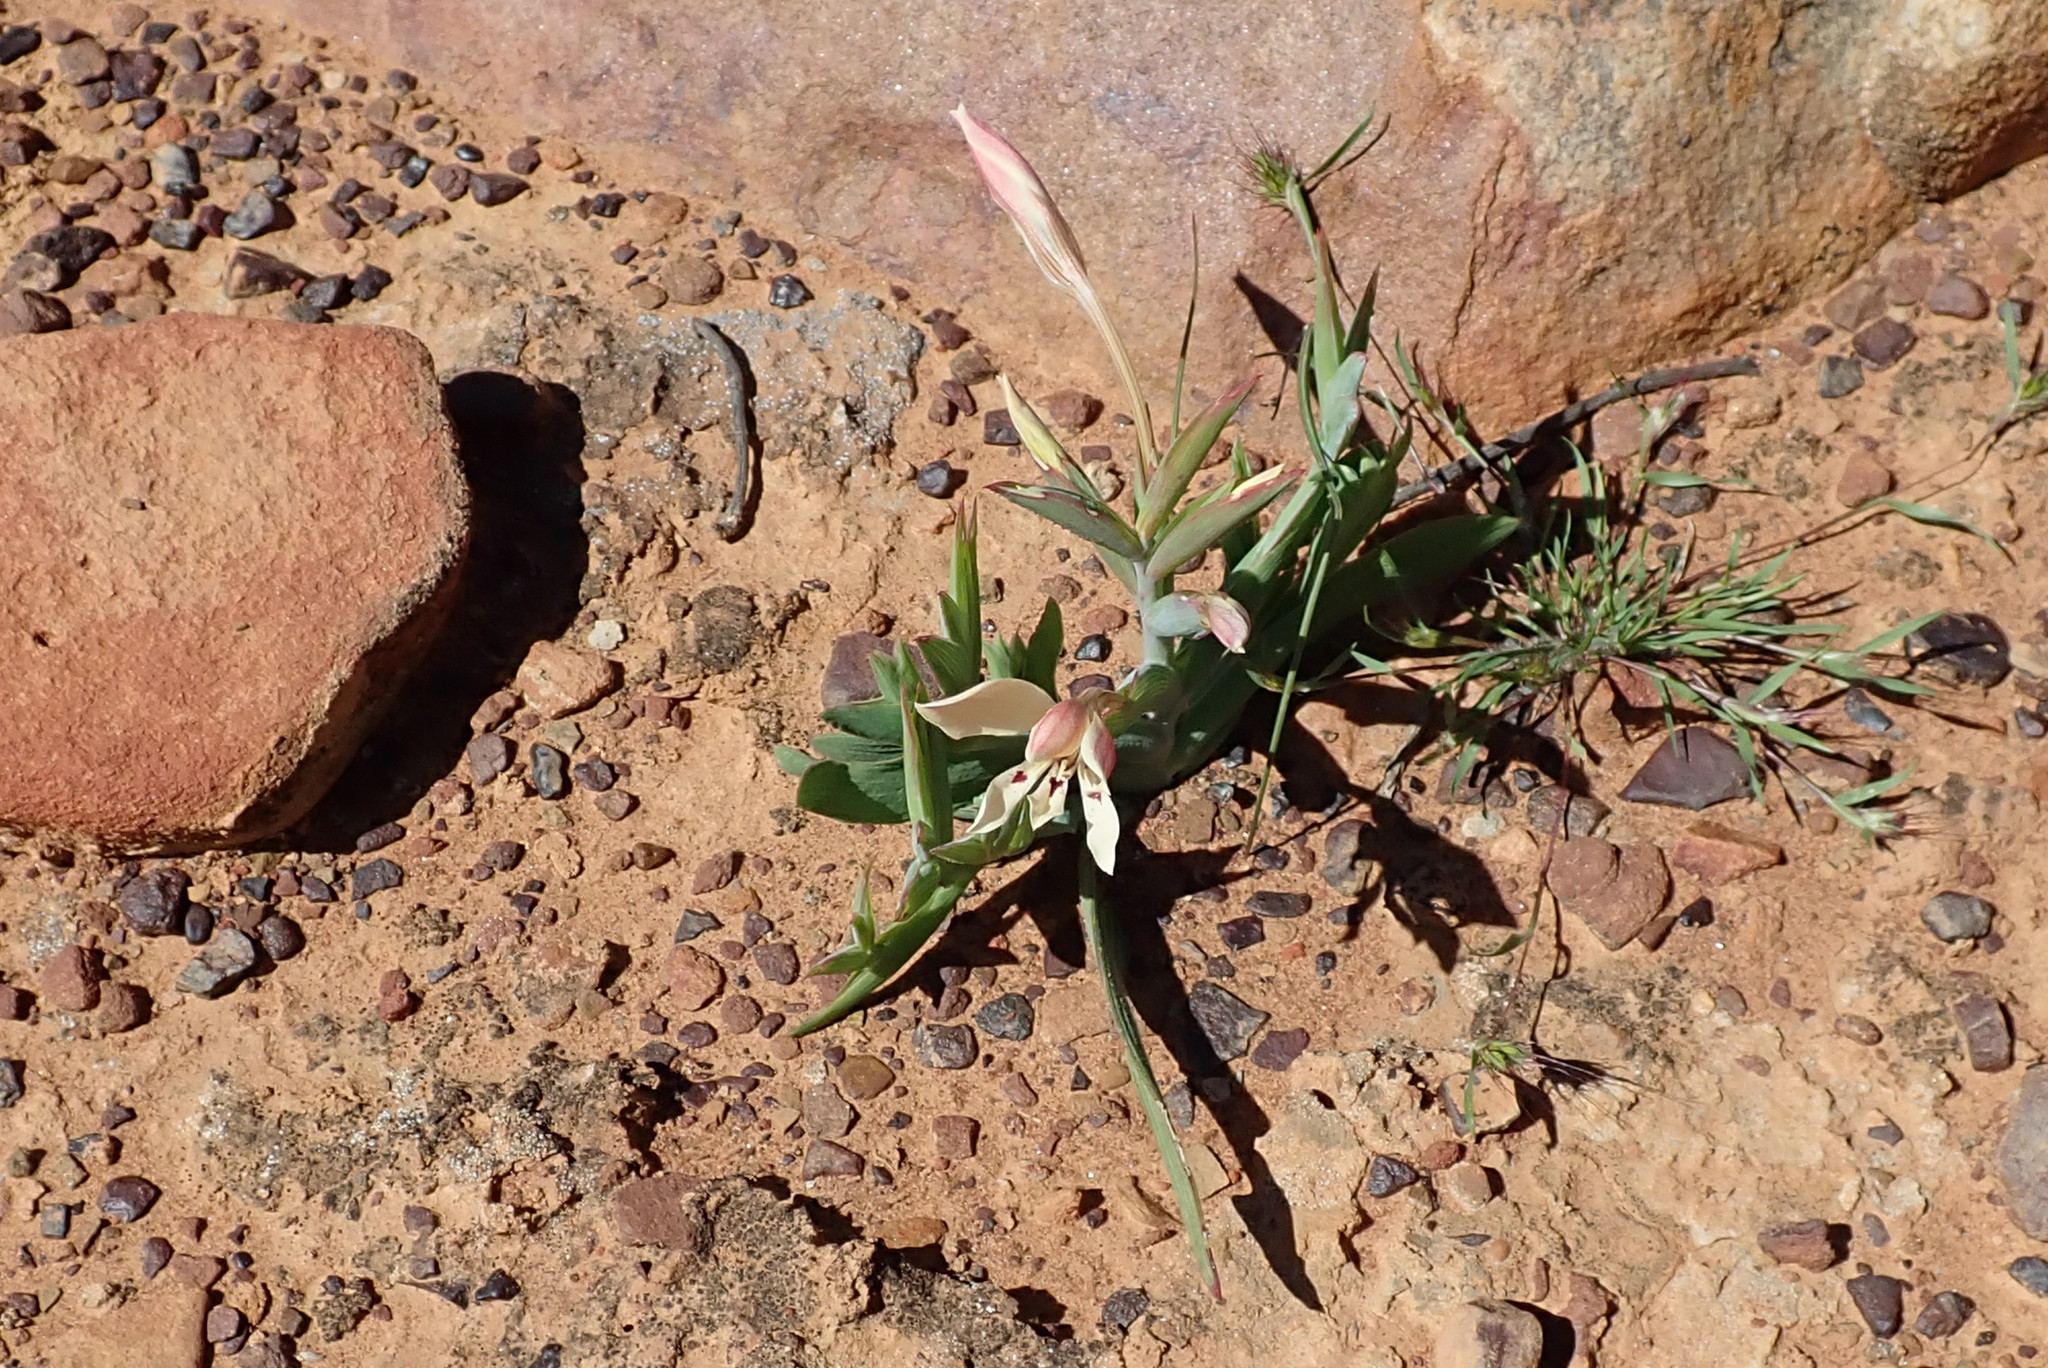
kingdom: Plantae
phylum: Tracheophyta
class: Liliopsida
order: Asparagales
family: Iridaceae
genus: Lapeirousia
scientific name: Lapeirousia fabricii
